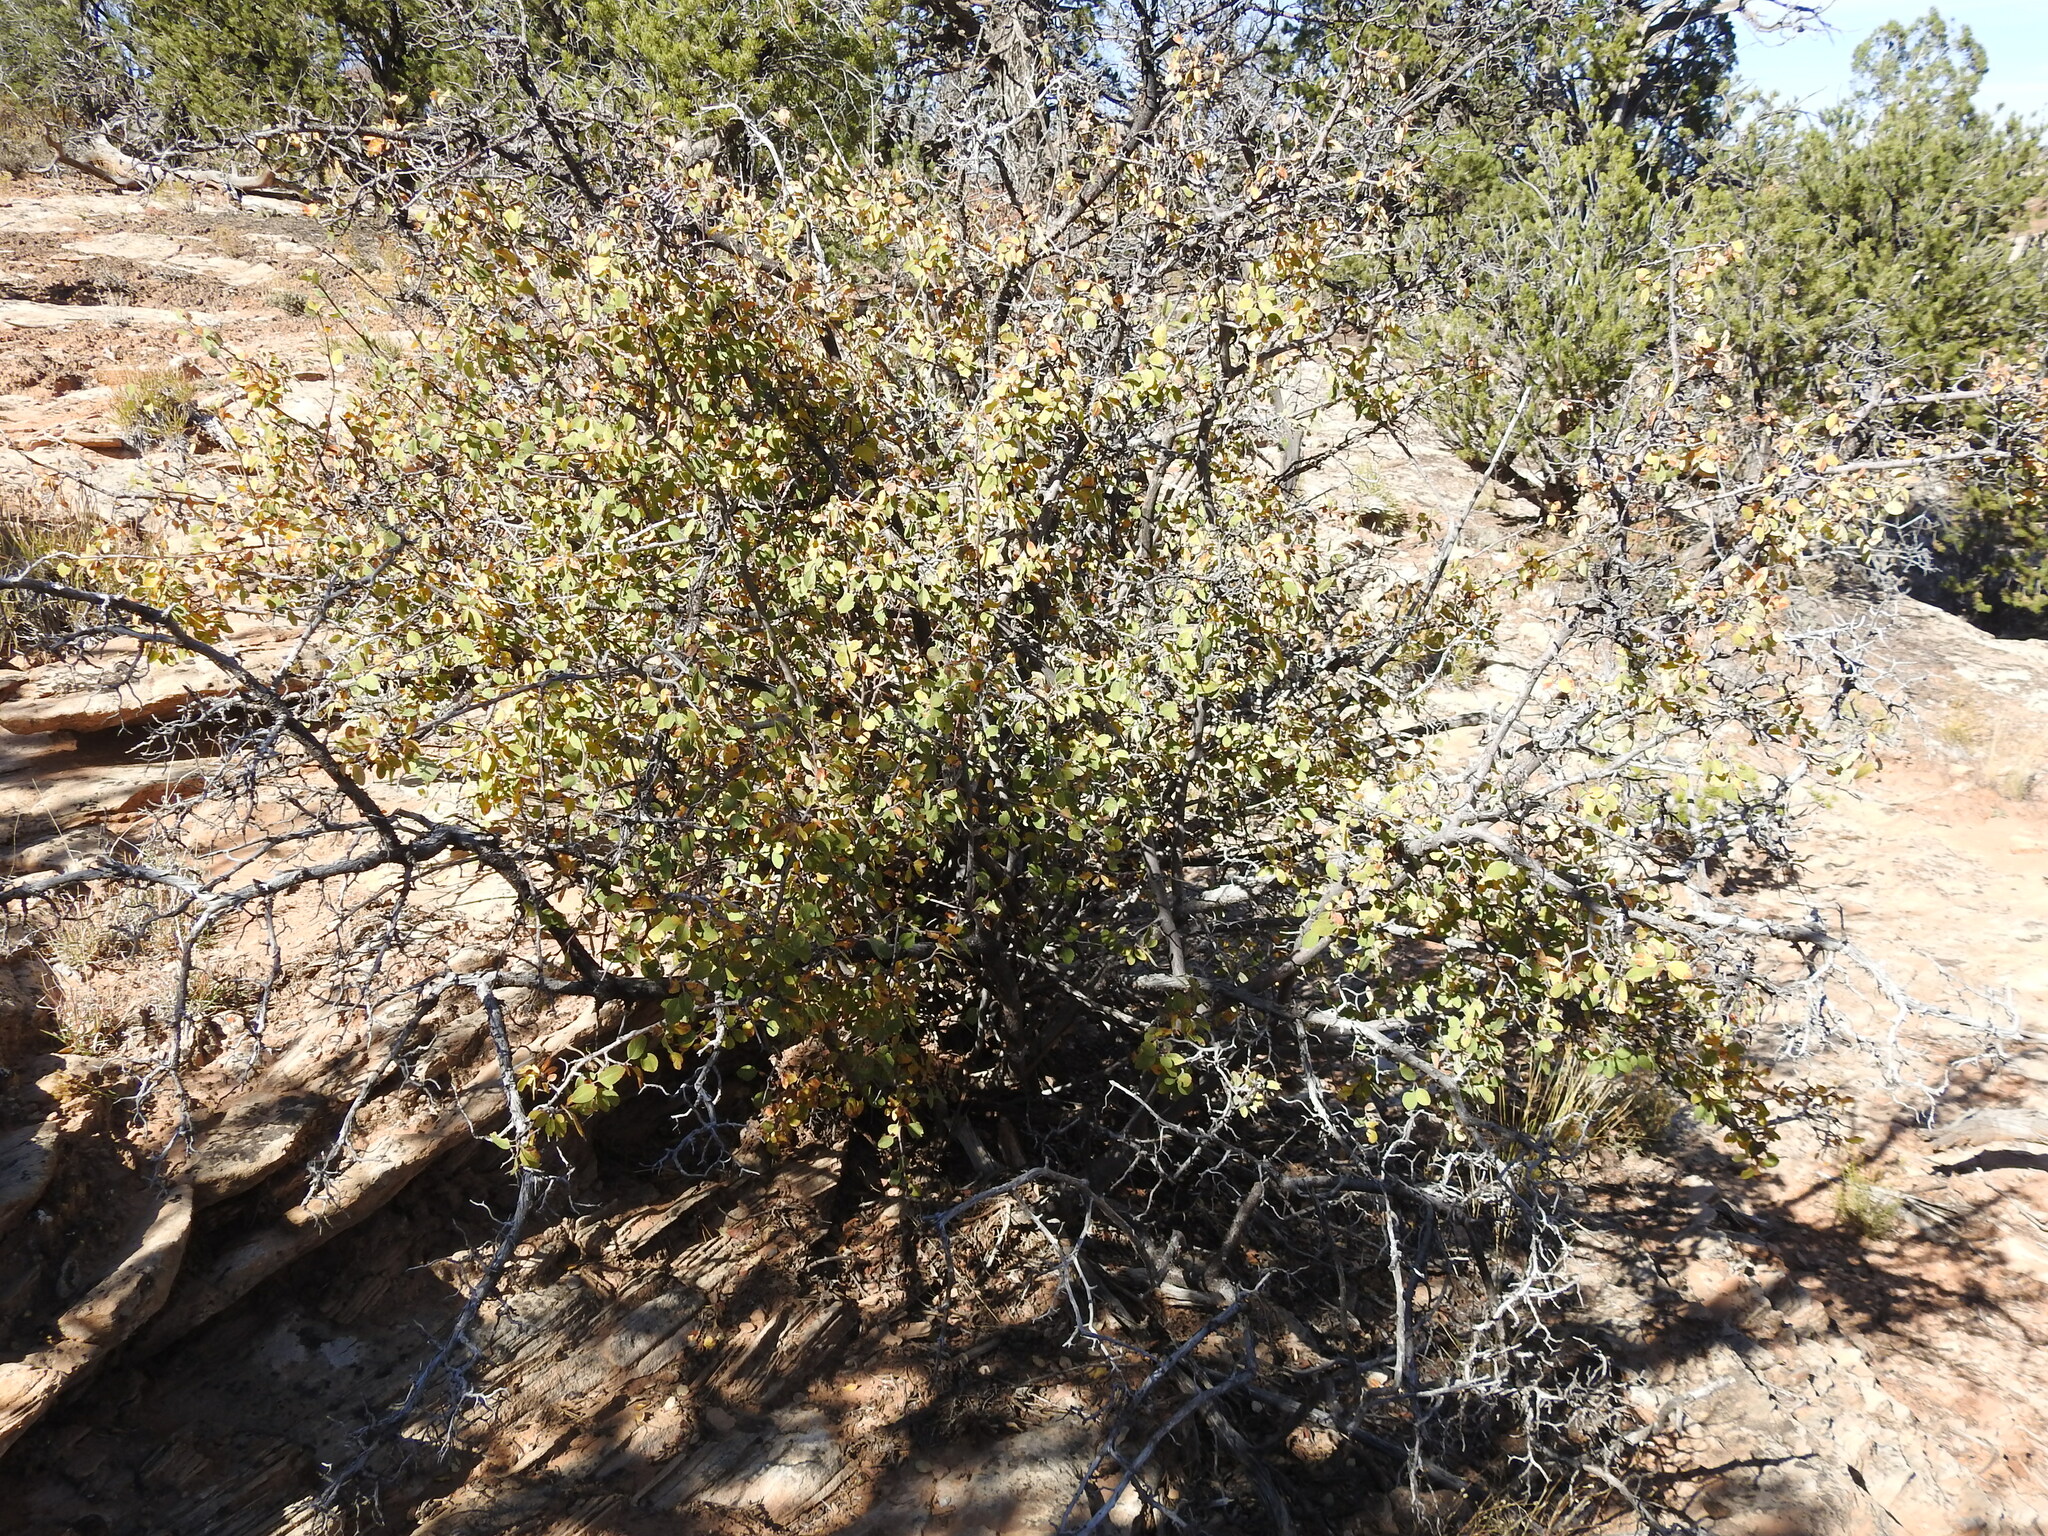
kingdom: Plantae
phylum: Tracheophyta
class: Magnoliopsida
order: Rosales
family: Rosaceae
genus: Amelanchier
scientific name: Amelanchier utahensis
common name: Utah serviceberry
